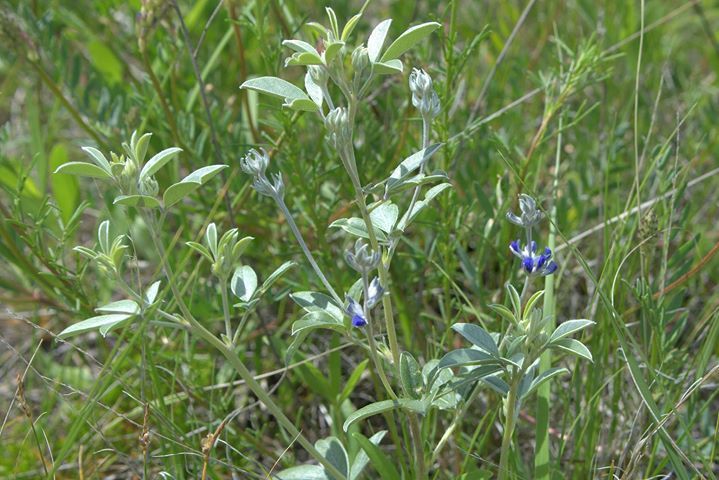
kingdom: Plantae
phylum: Tracheophyta
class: Magnoliopsida
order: Fabales
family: Fabaceae
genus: Pediomelum
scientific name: Pediomelum argophyllum
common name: Silver-leaved indian breadroot
